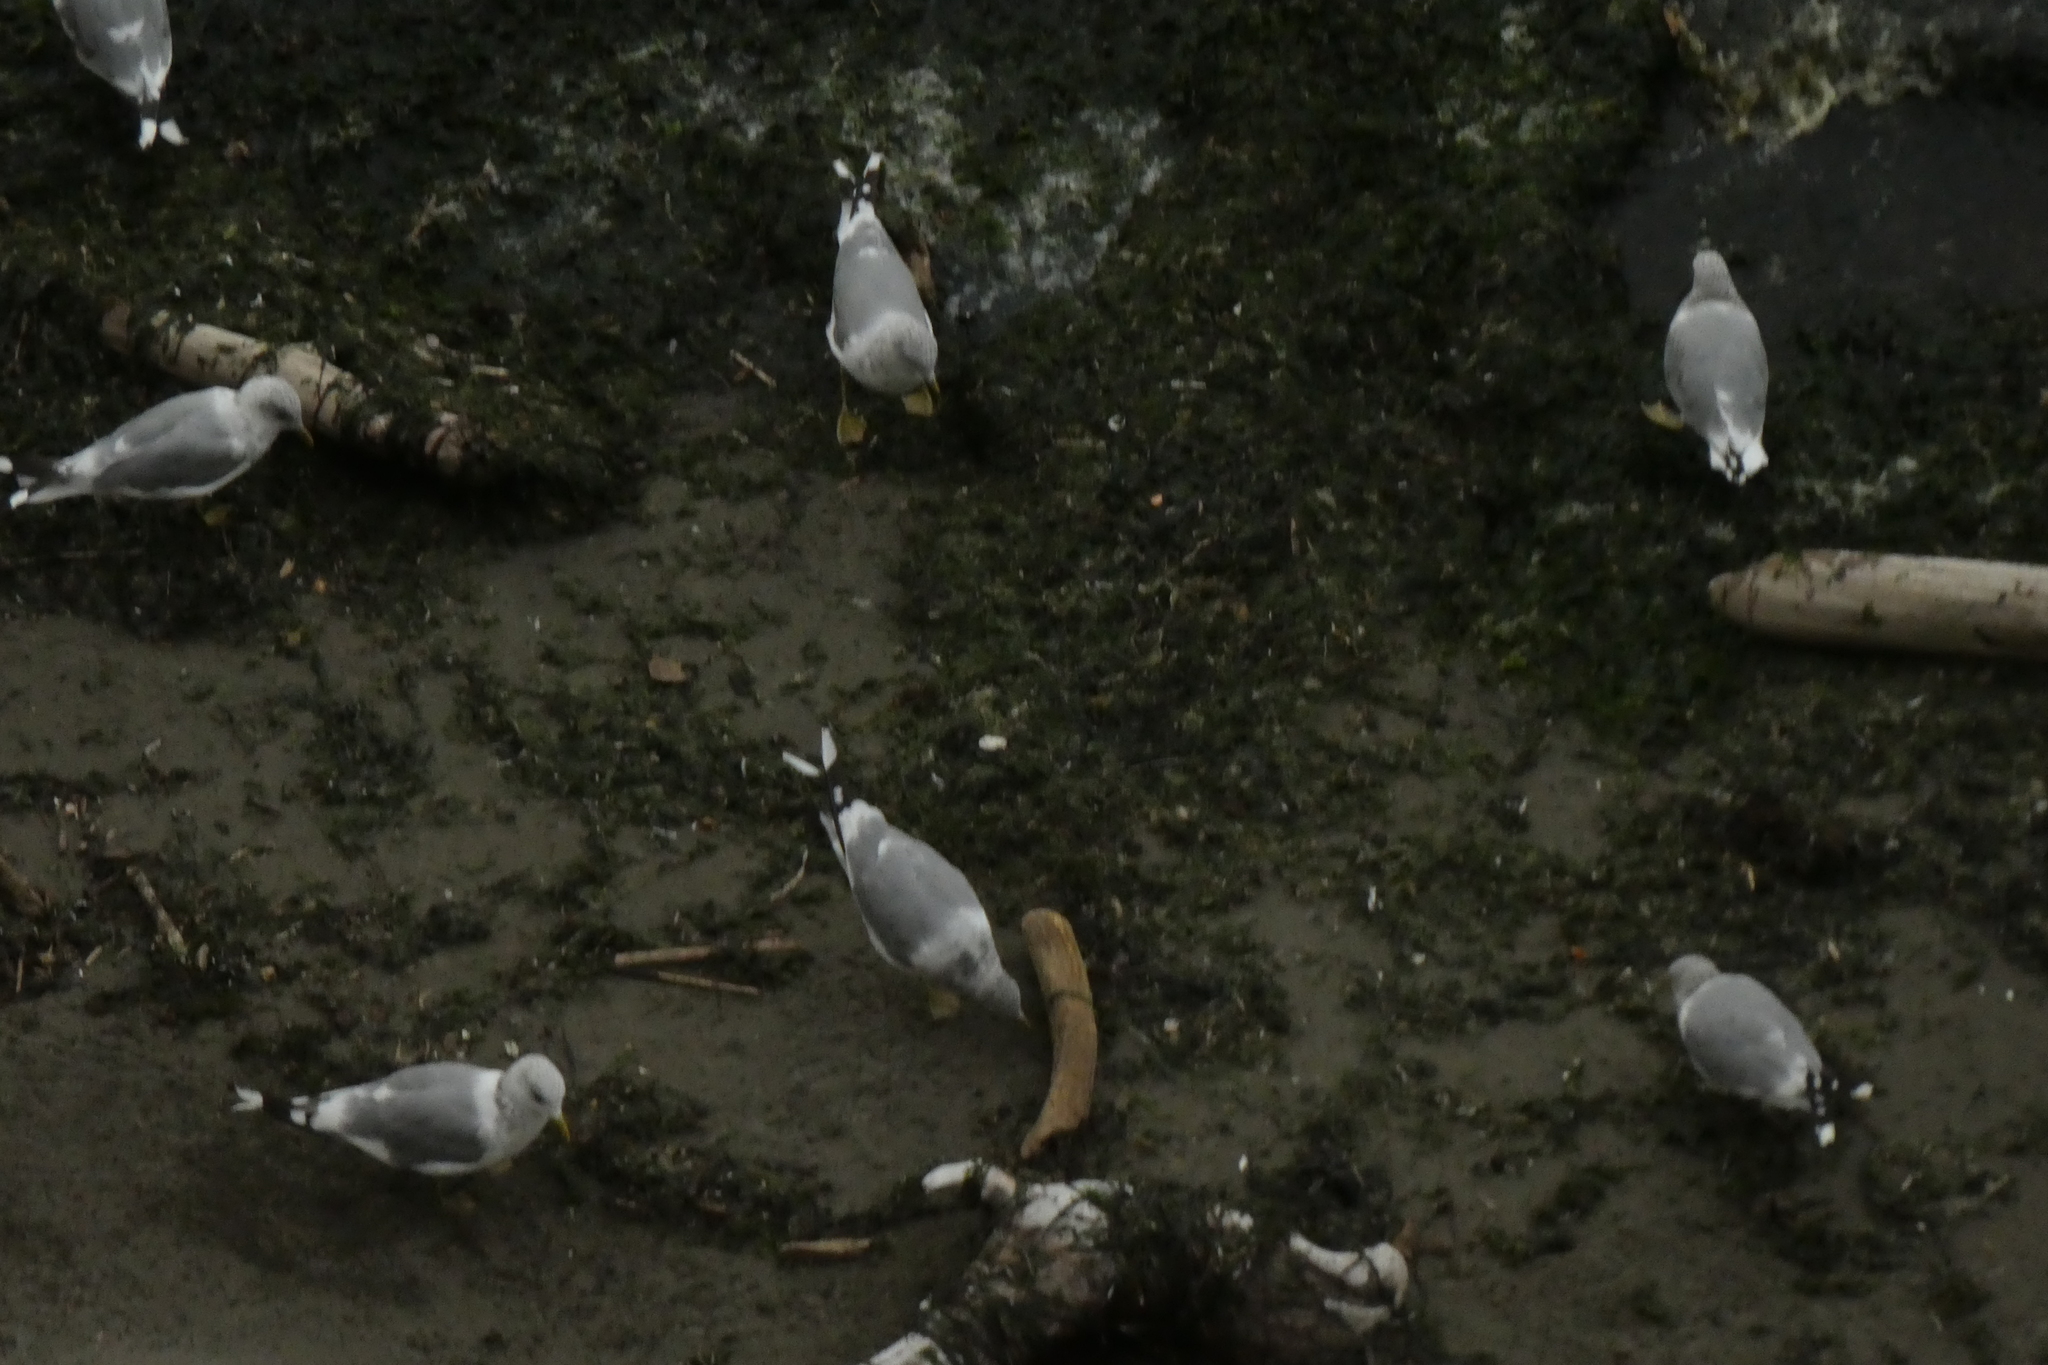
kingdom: Animalia
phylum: Chordata
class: Aves
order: Charadriiformes
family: Laridae
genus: Larus
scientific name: Larus brachyrhynchus
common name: Short-billed gull
